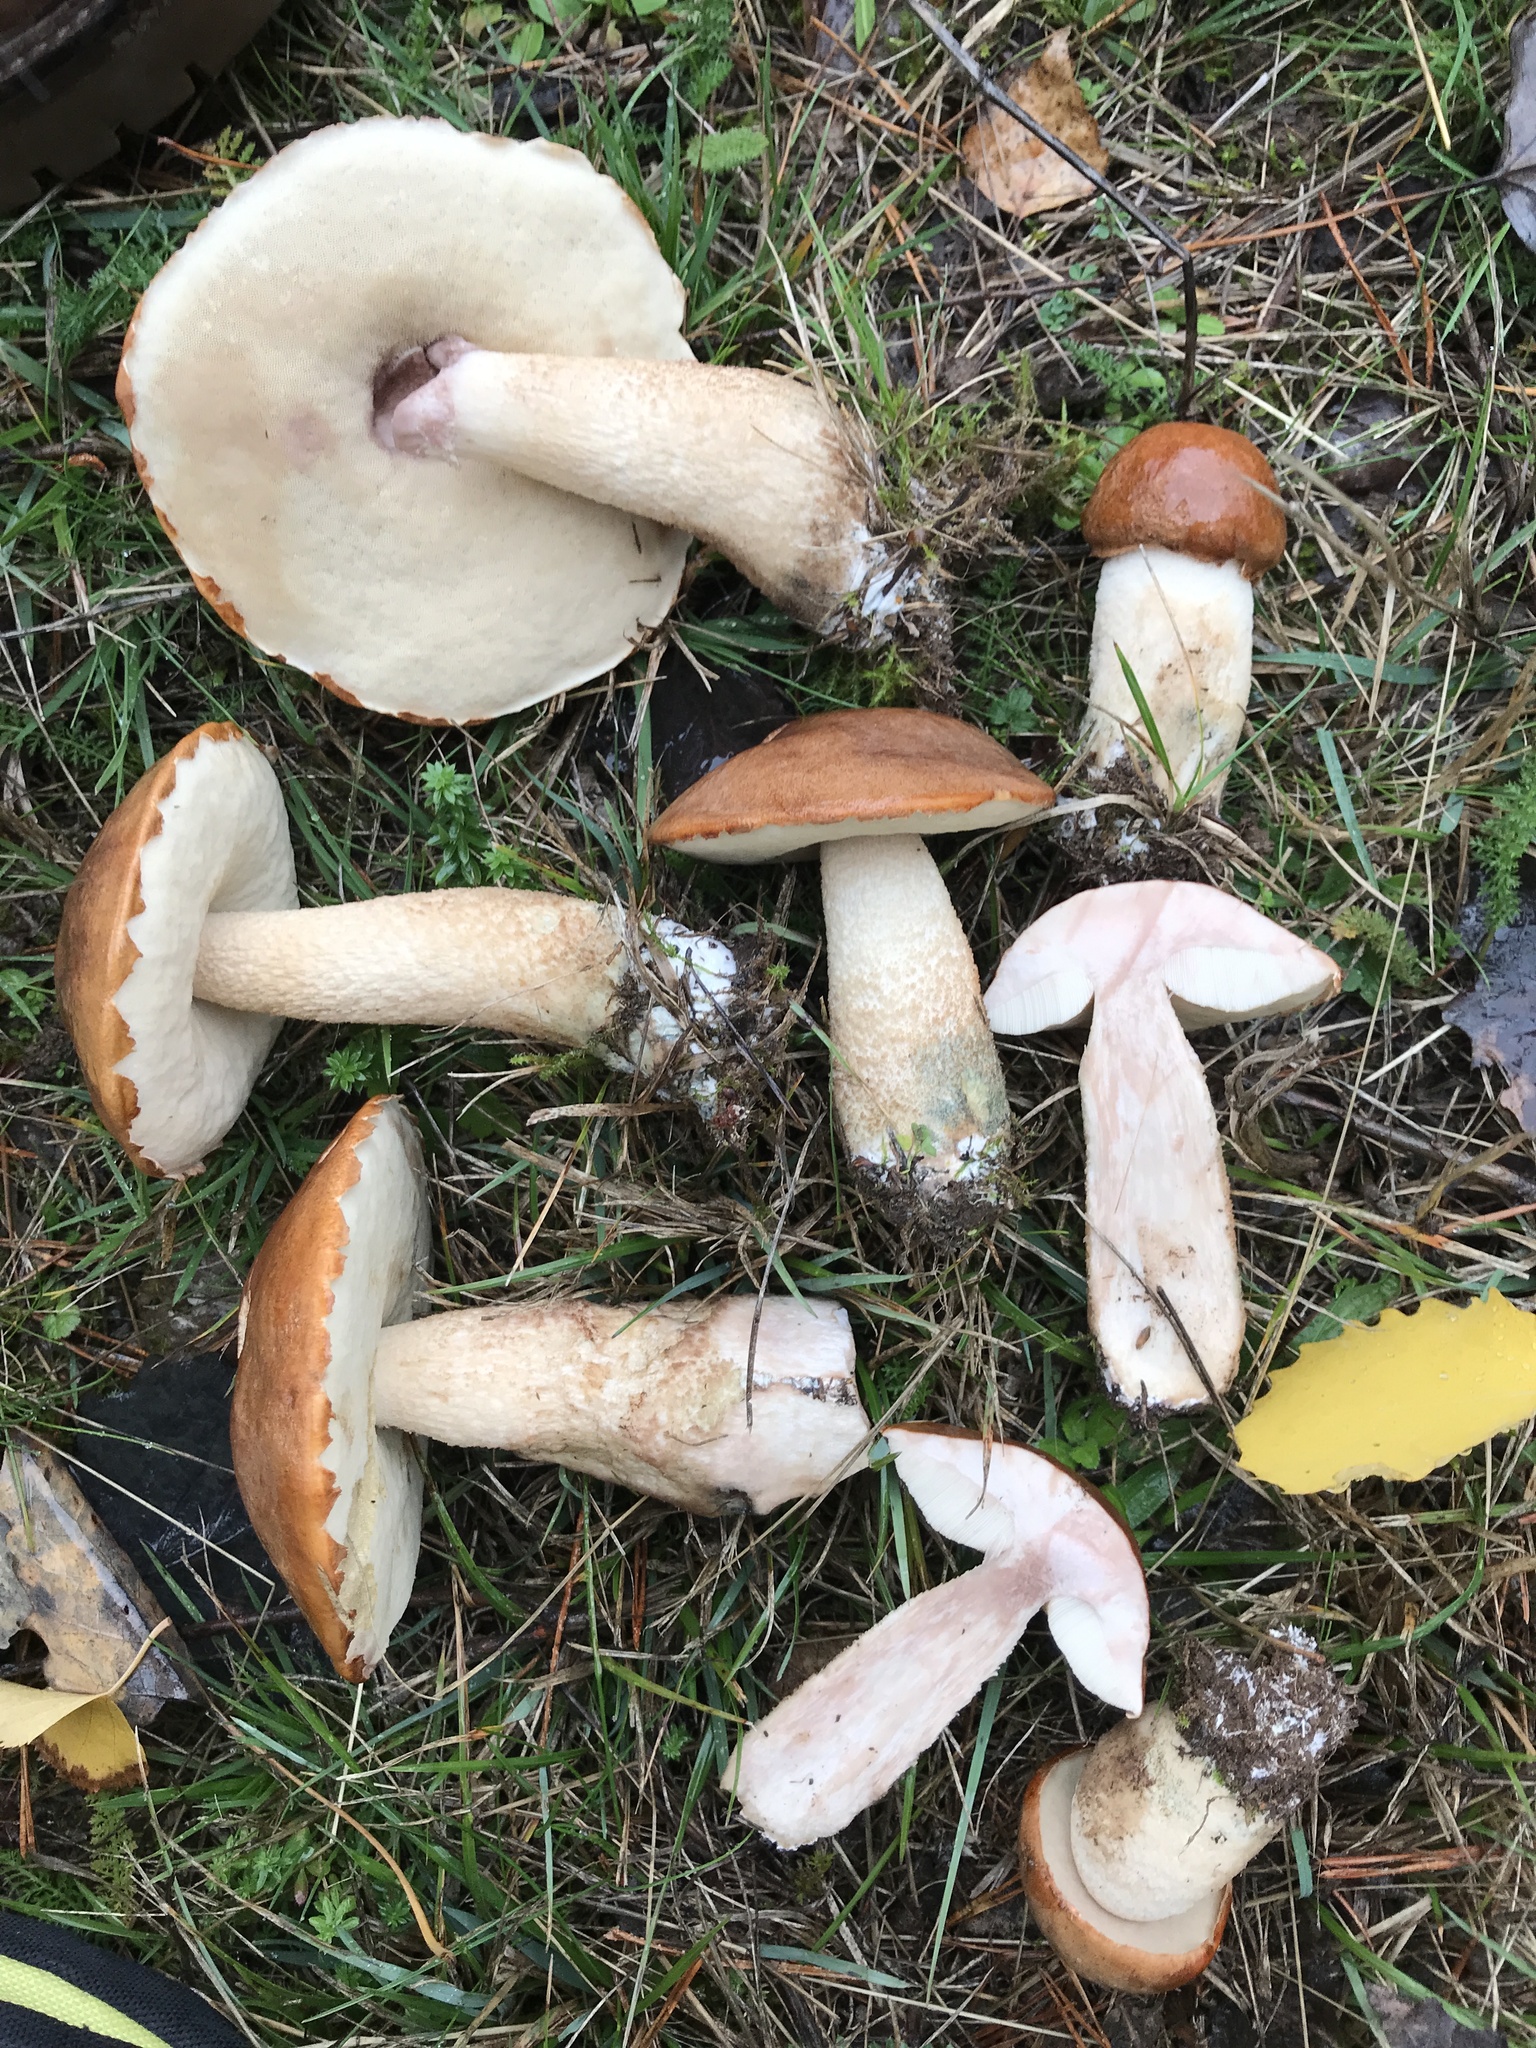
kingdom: Fungi
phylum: Basidiomycota
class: Agaricomycetes
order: Boletales
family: Boletaceae
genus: Leccinum
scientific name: Leccinum albostipitatum
